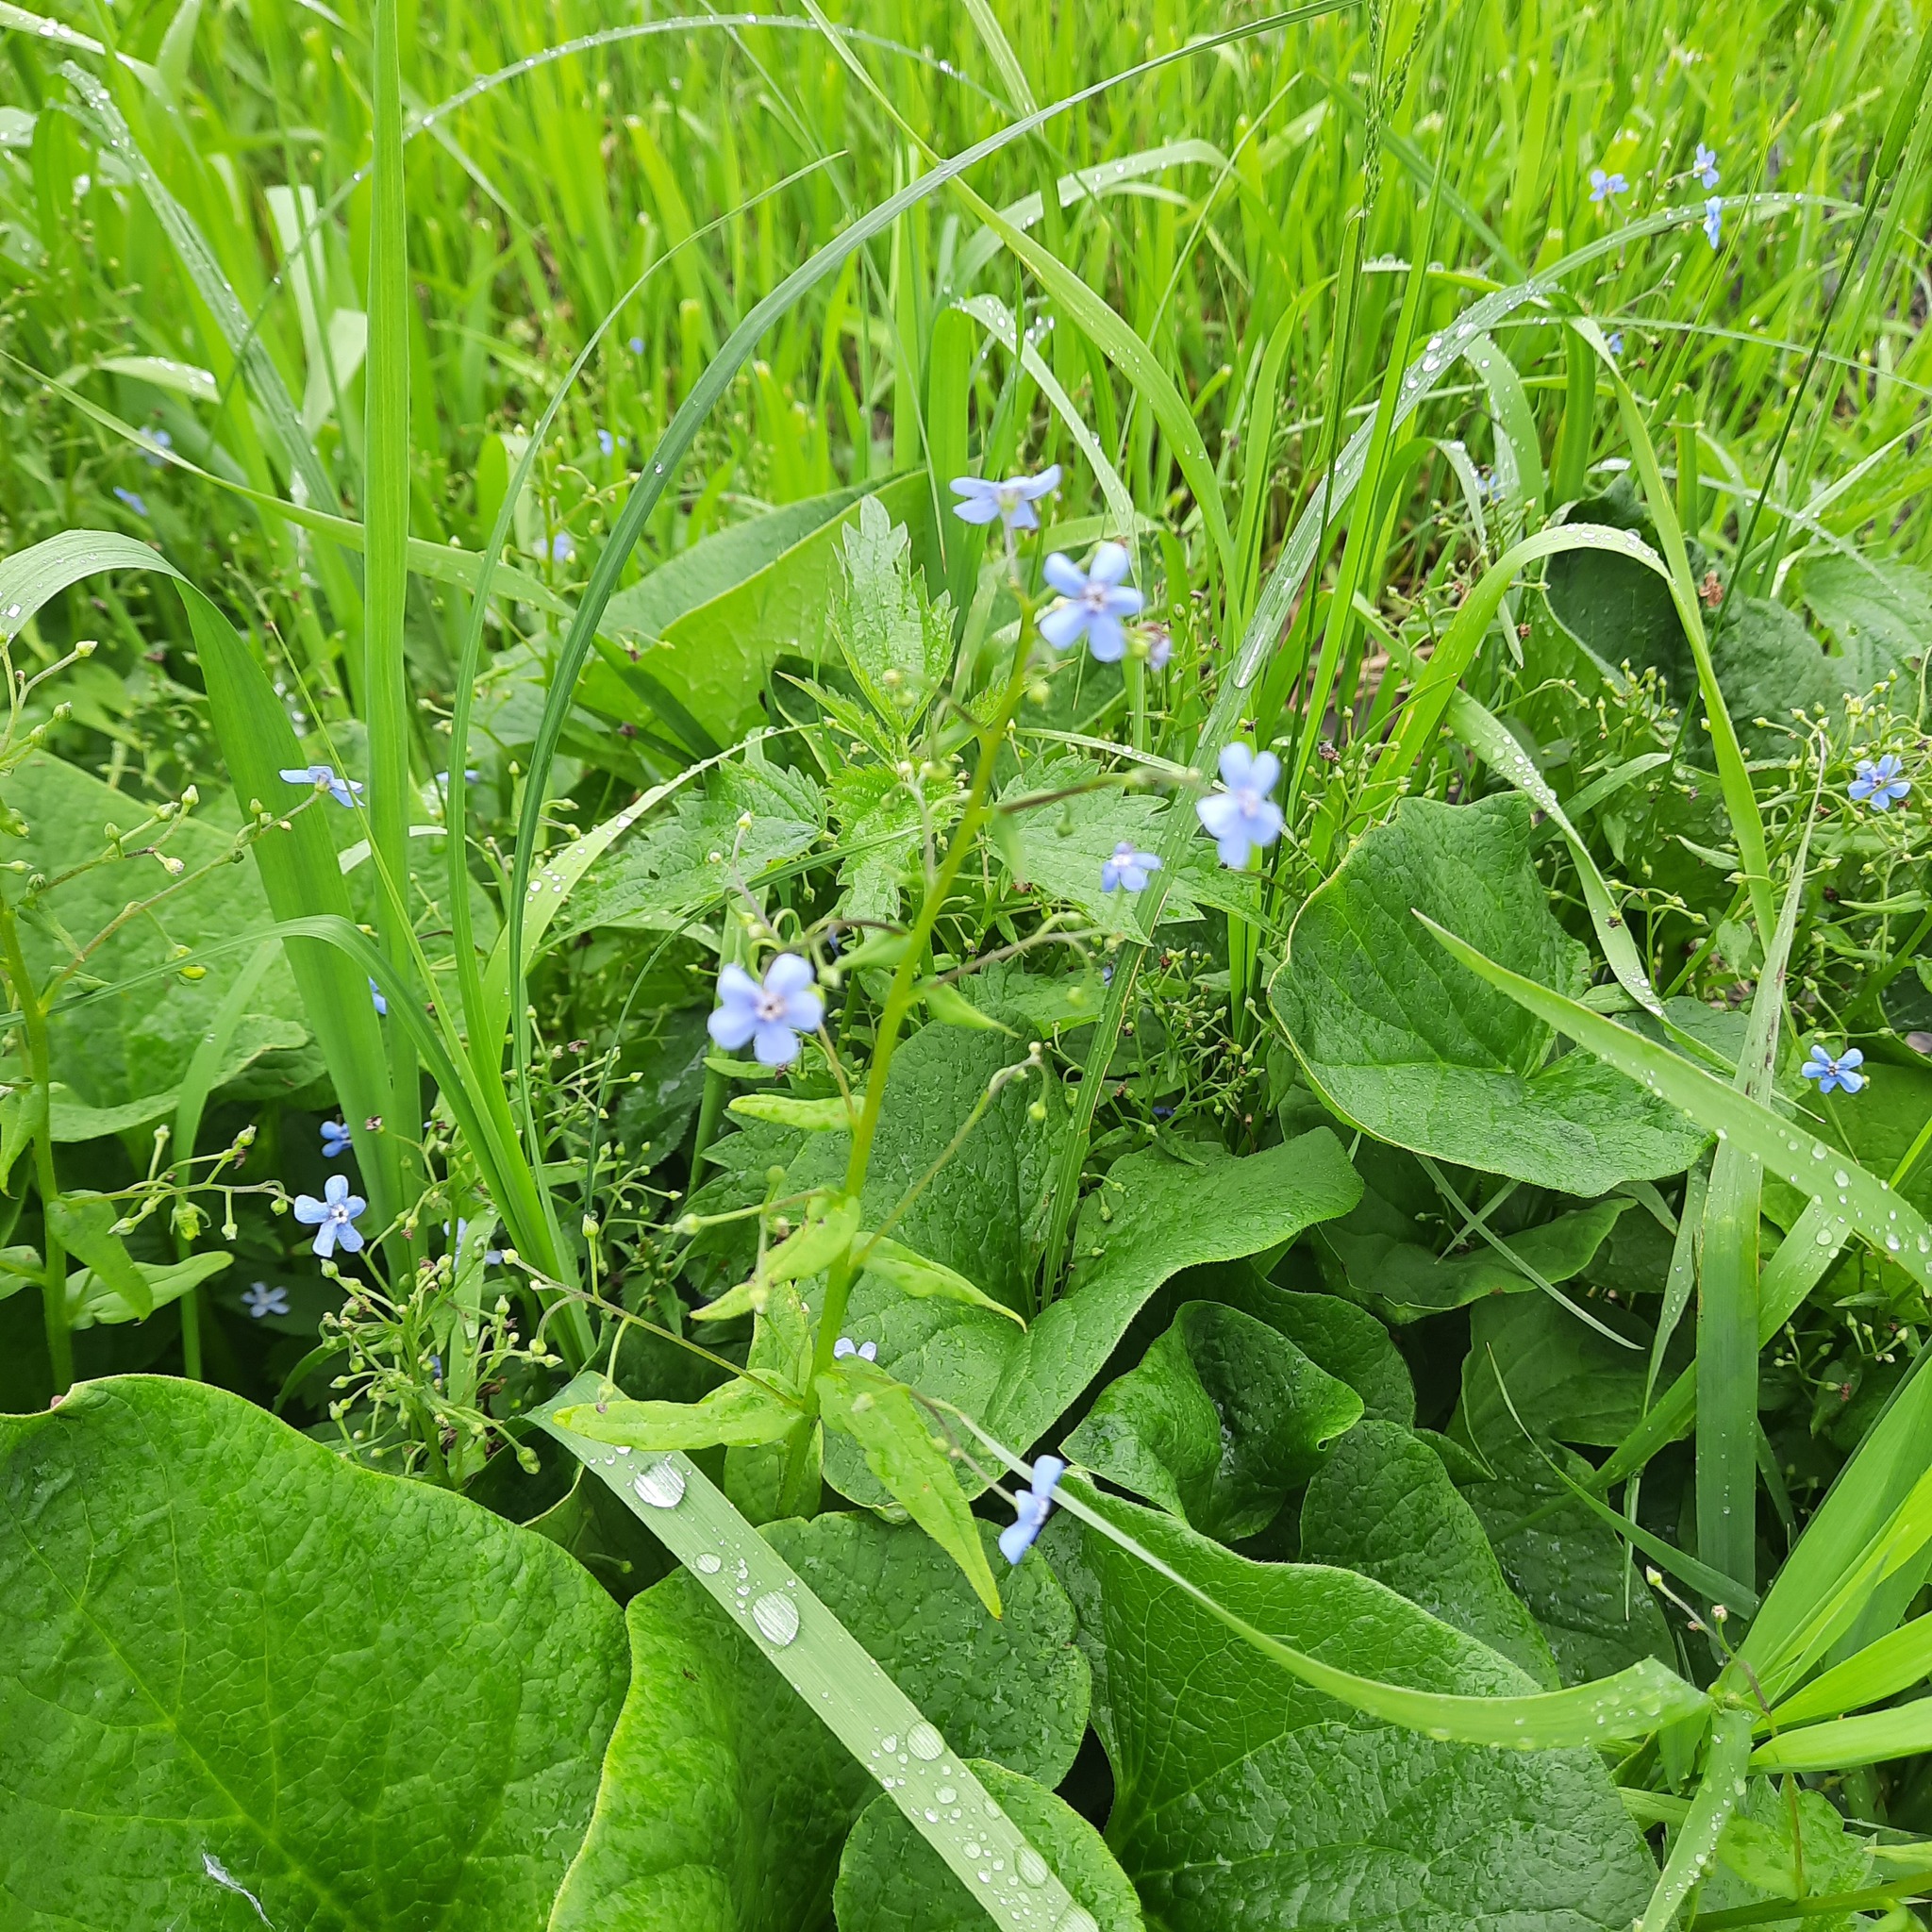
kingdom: Plantae
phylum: Tracheophyta
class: Magnoliopsida
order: Boraginales
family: Boraginaceae
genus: Brunnera
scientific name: Brunnera sibirica
